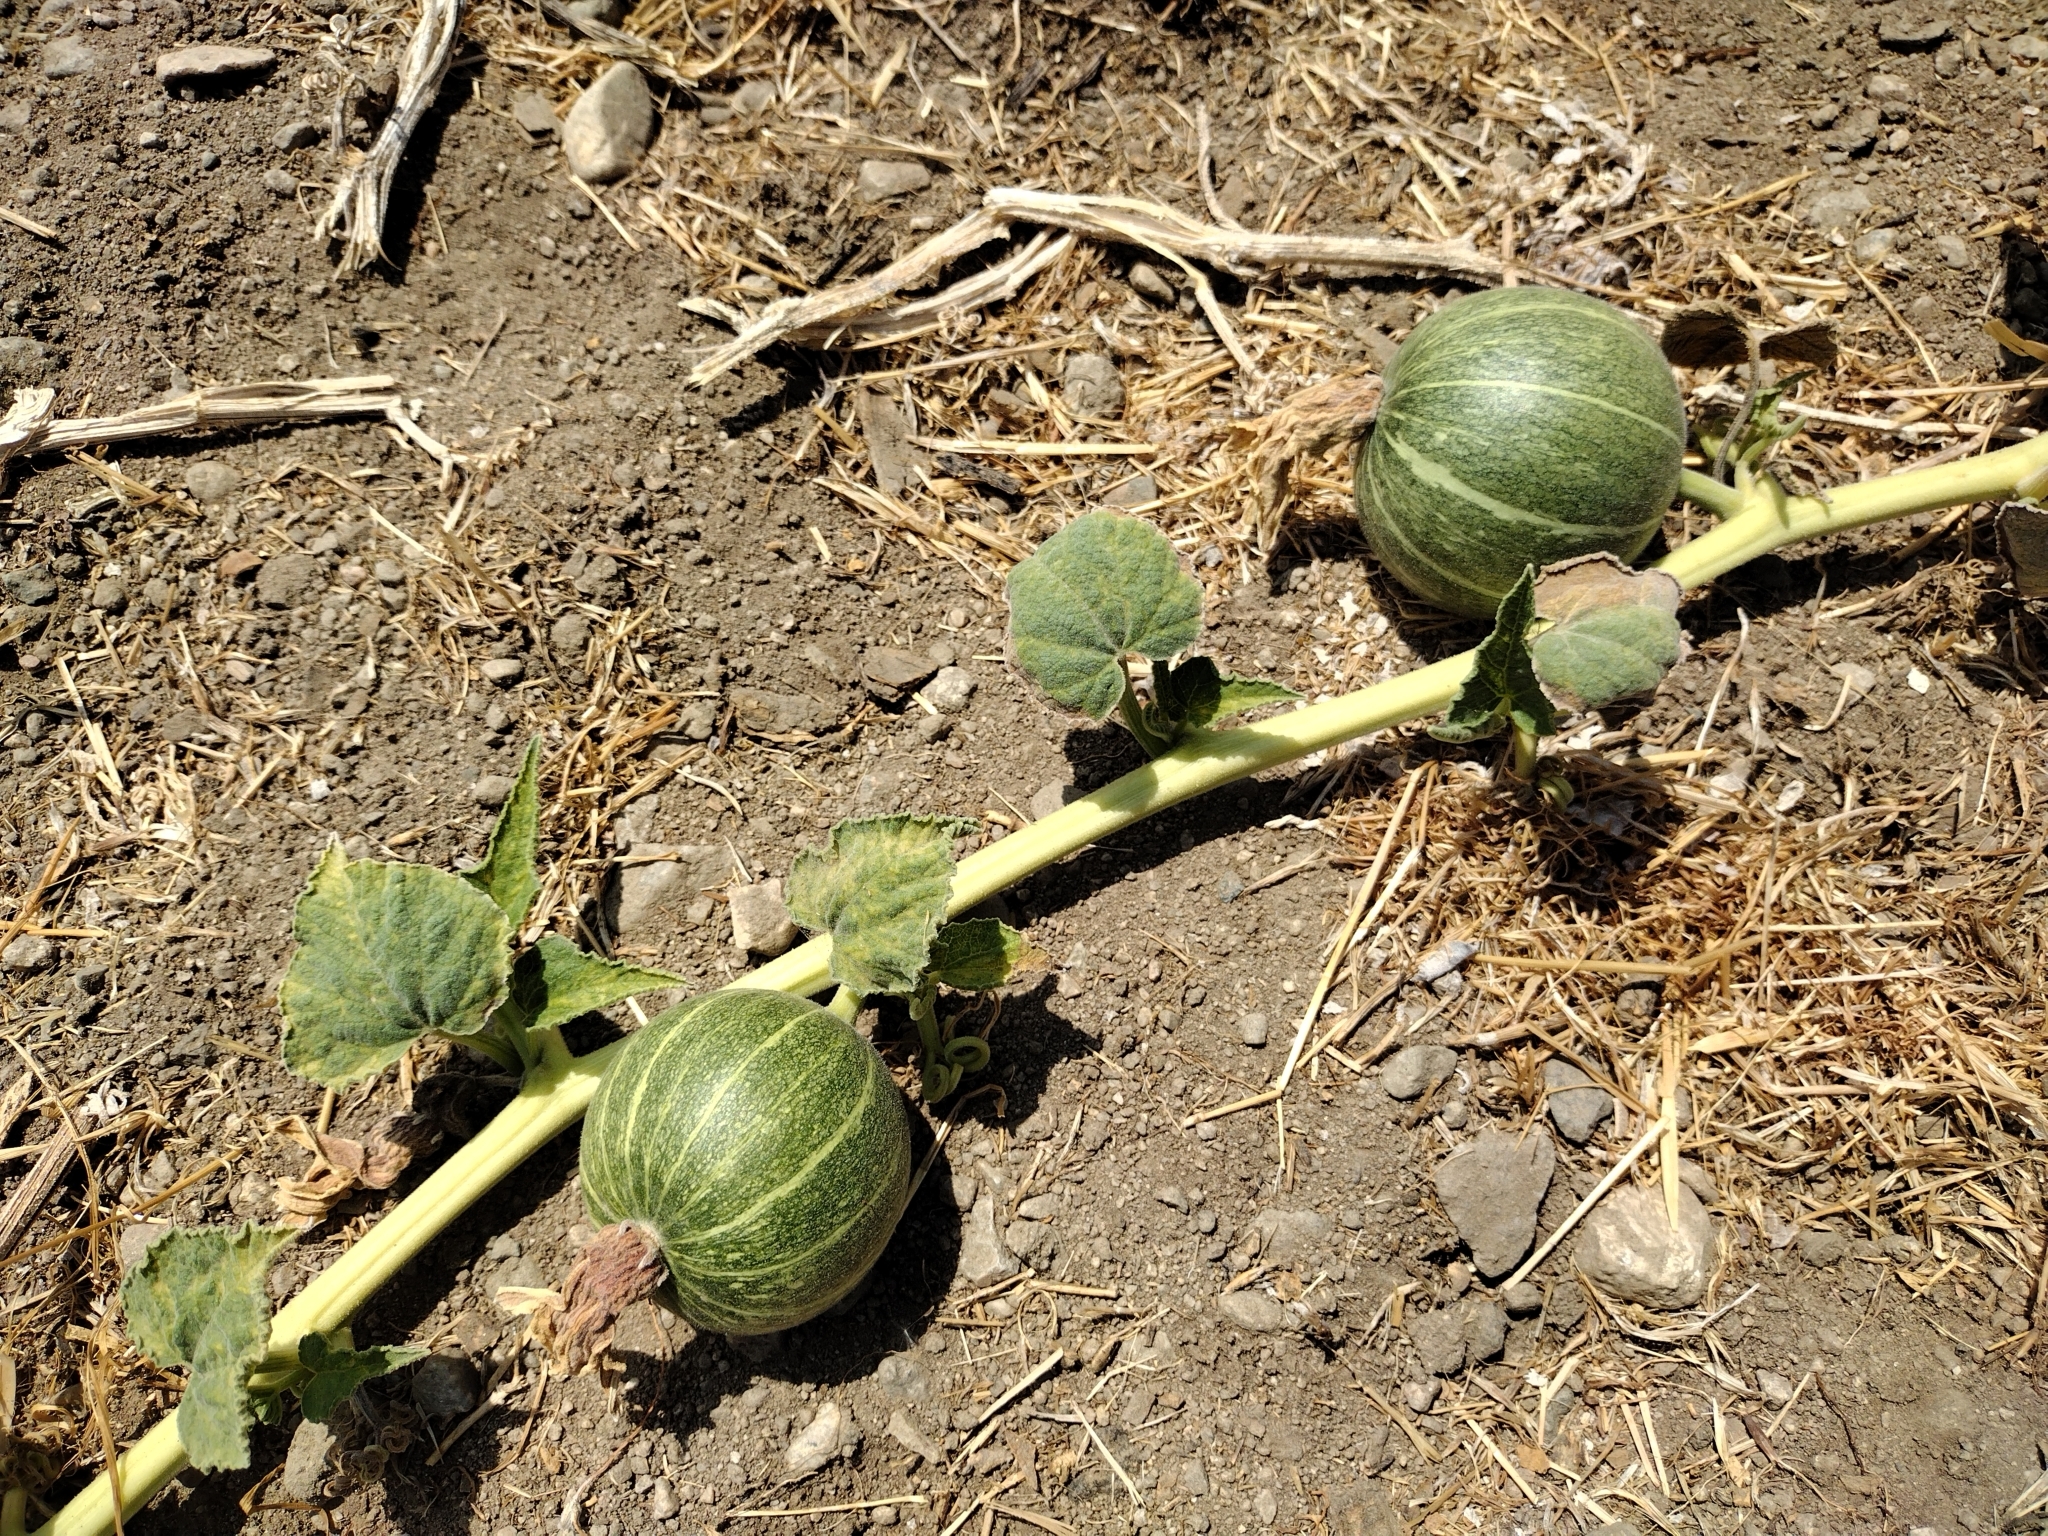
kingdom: Plantae
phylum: Tracheophyta
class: Magnoliopsida
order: Cucurbitales
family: Cucurbitaceae
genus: Cucurbita
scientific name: Cucurbita foetidissima
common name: Buffalo gourd
